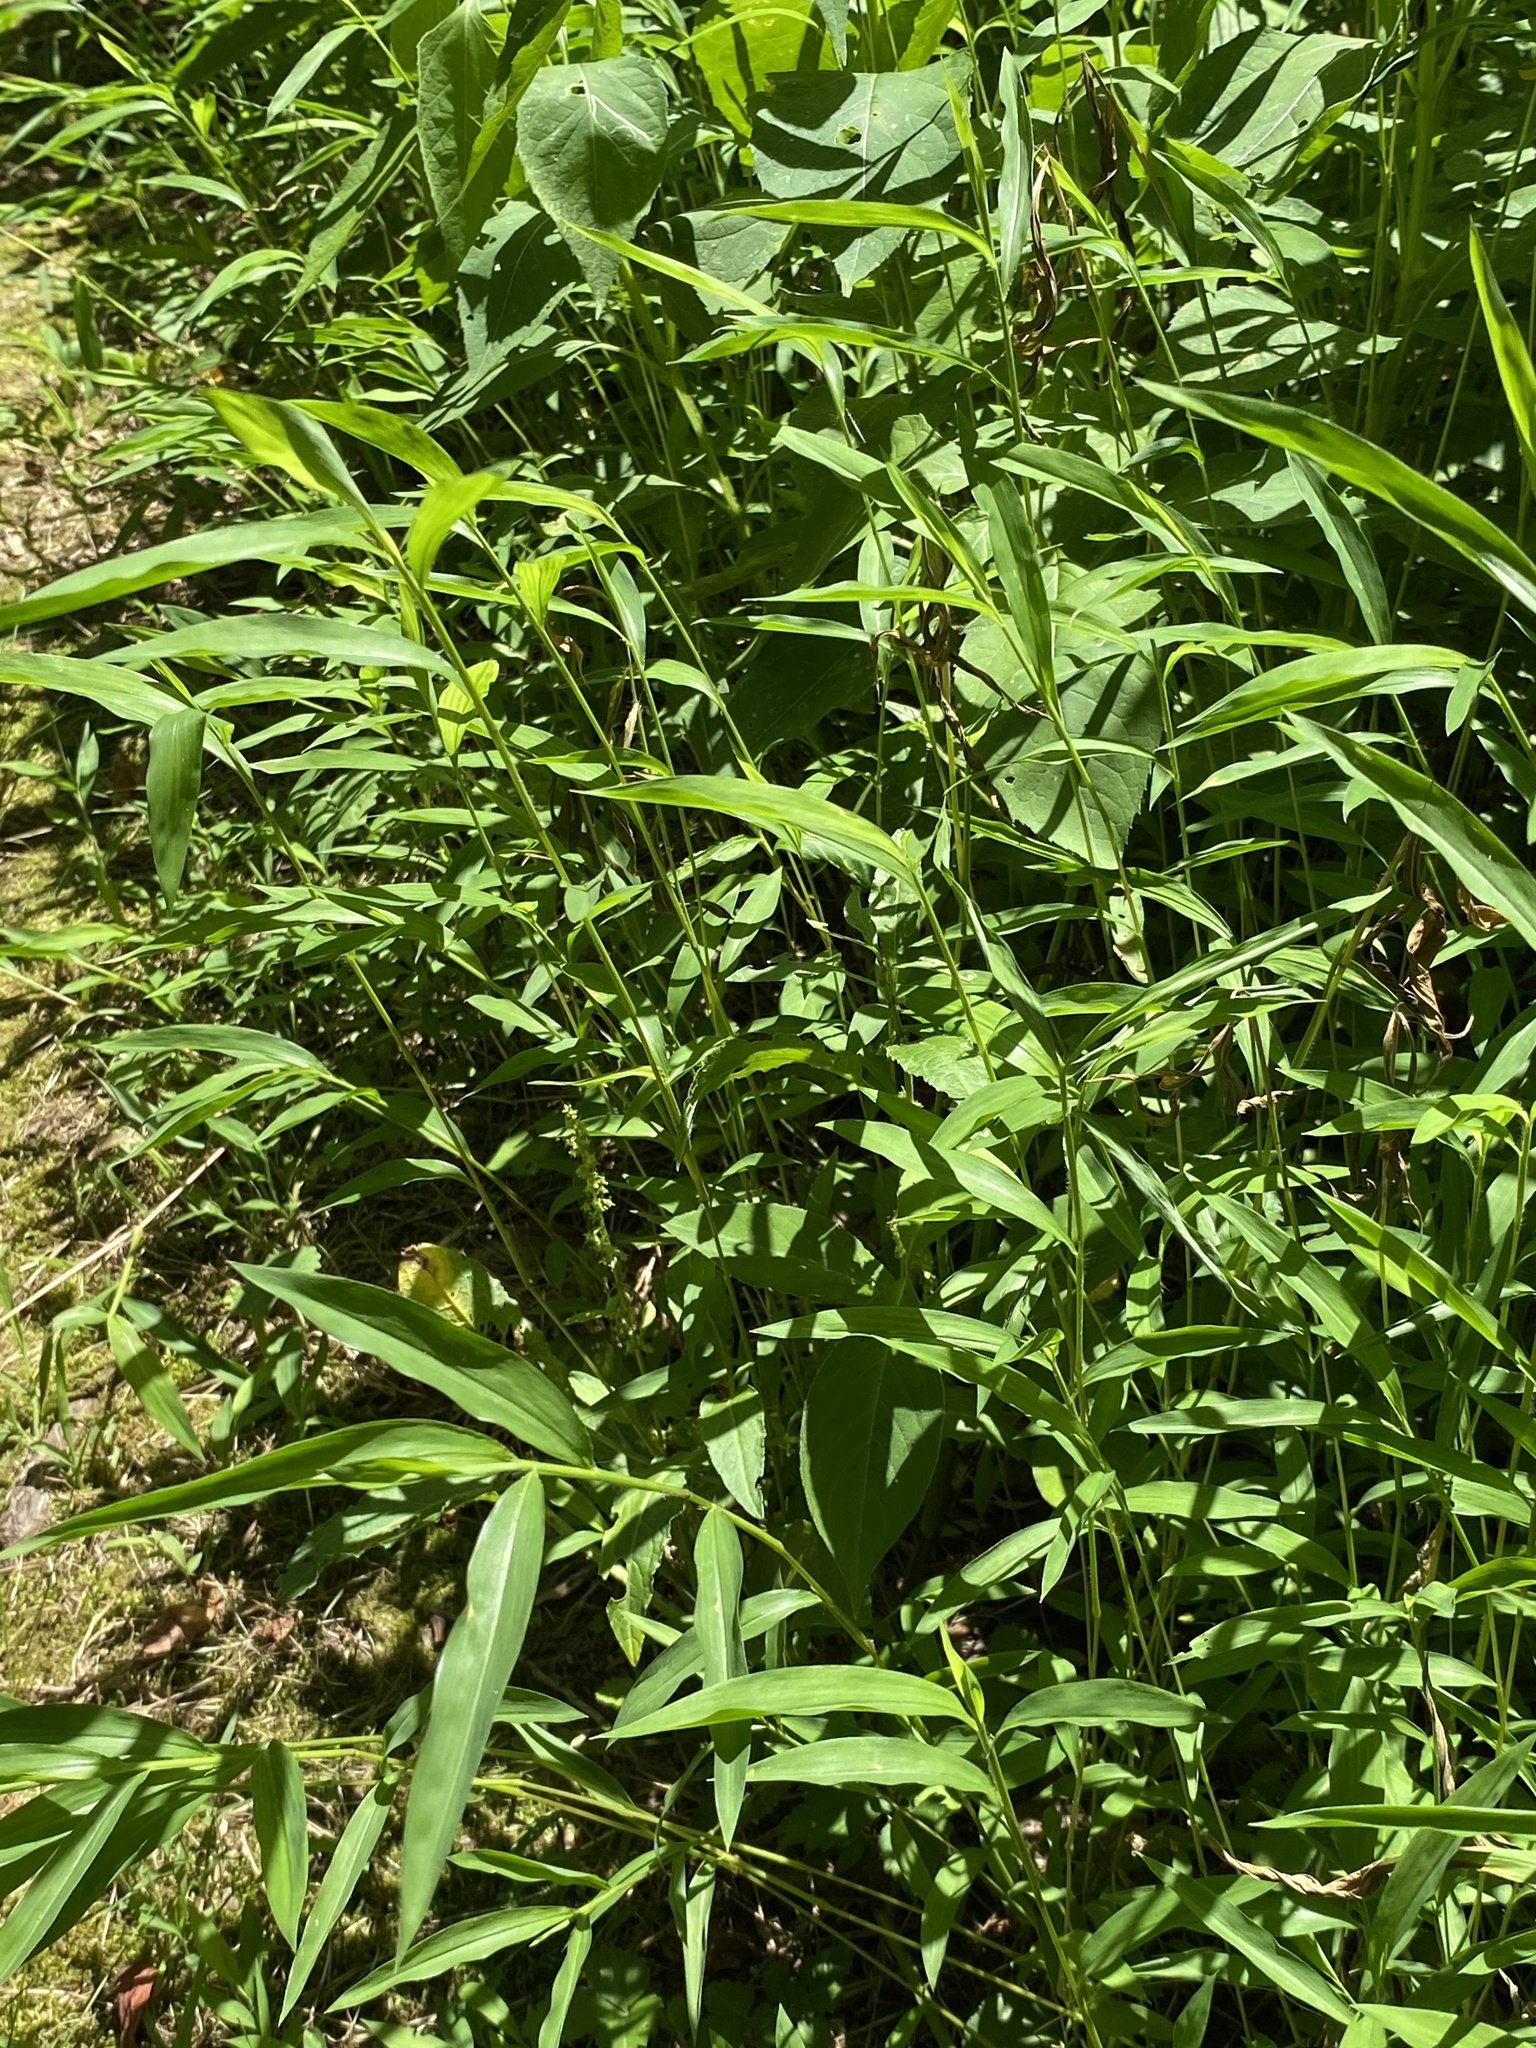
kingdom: Plantae
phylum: Tracheophyta
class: Liliopsida
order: Poales
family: Poaceae
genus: Microstegium
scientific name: Microstegium vimineum
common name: Japanese stiltgrass
